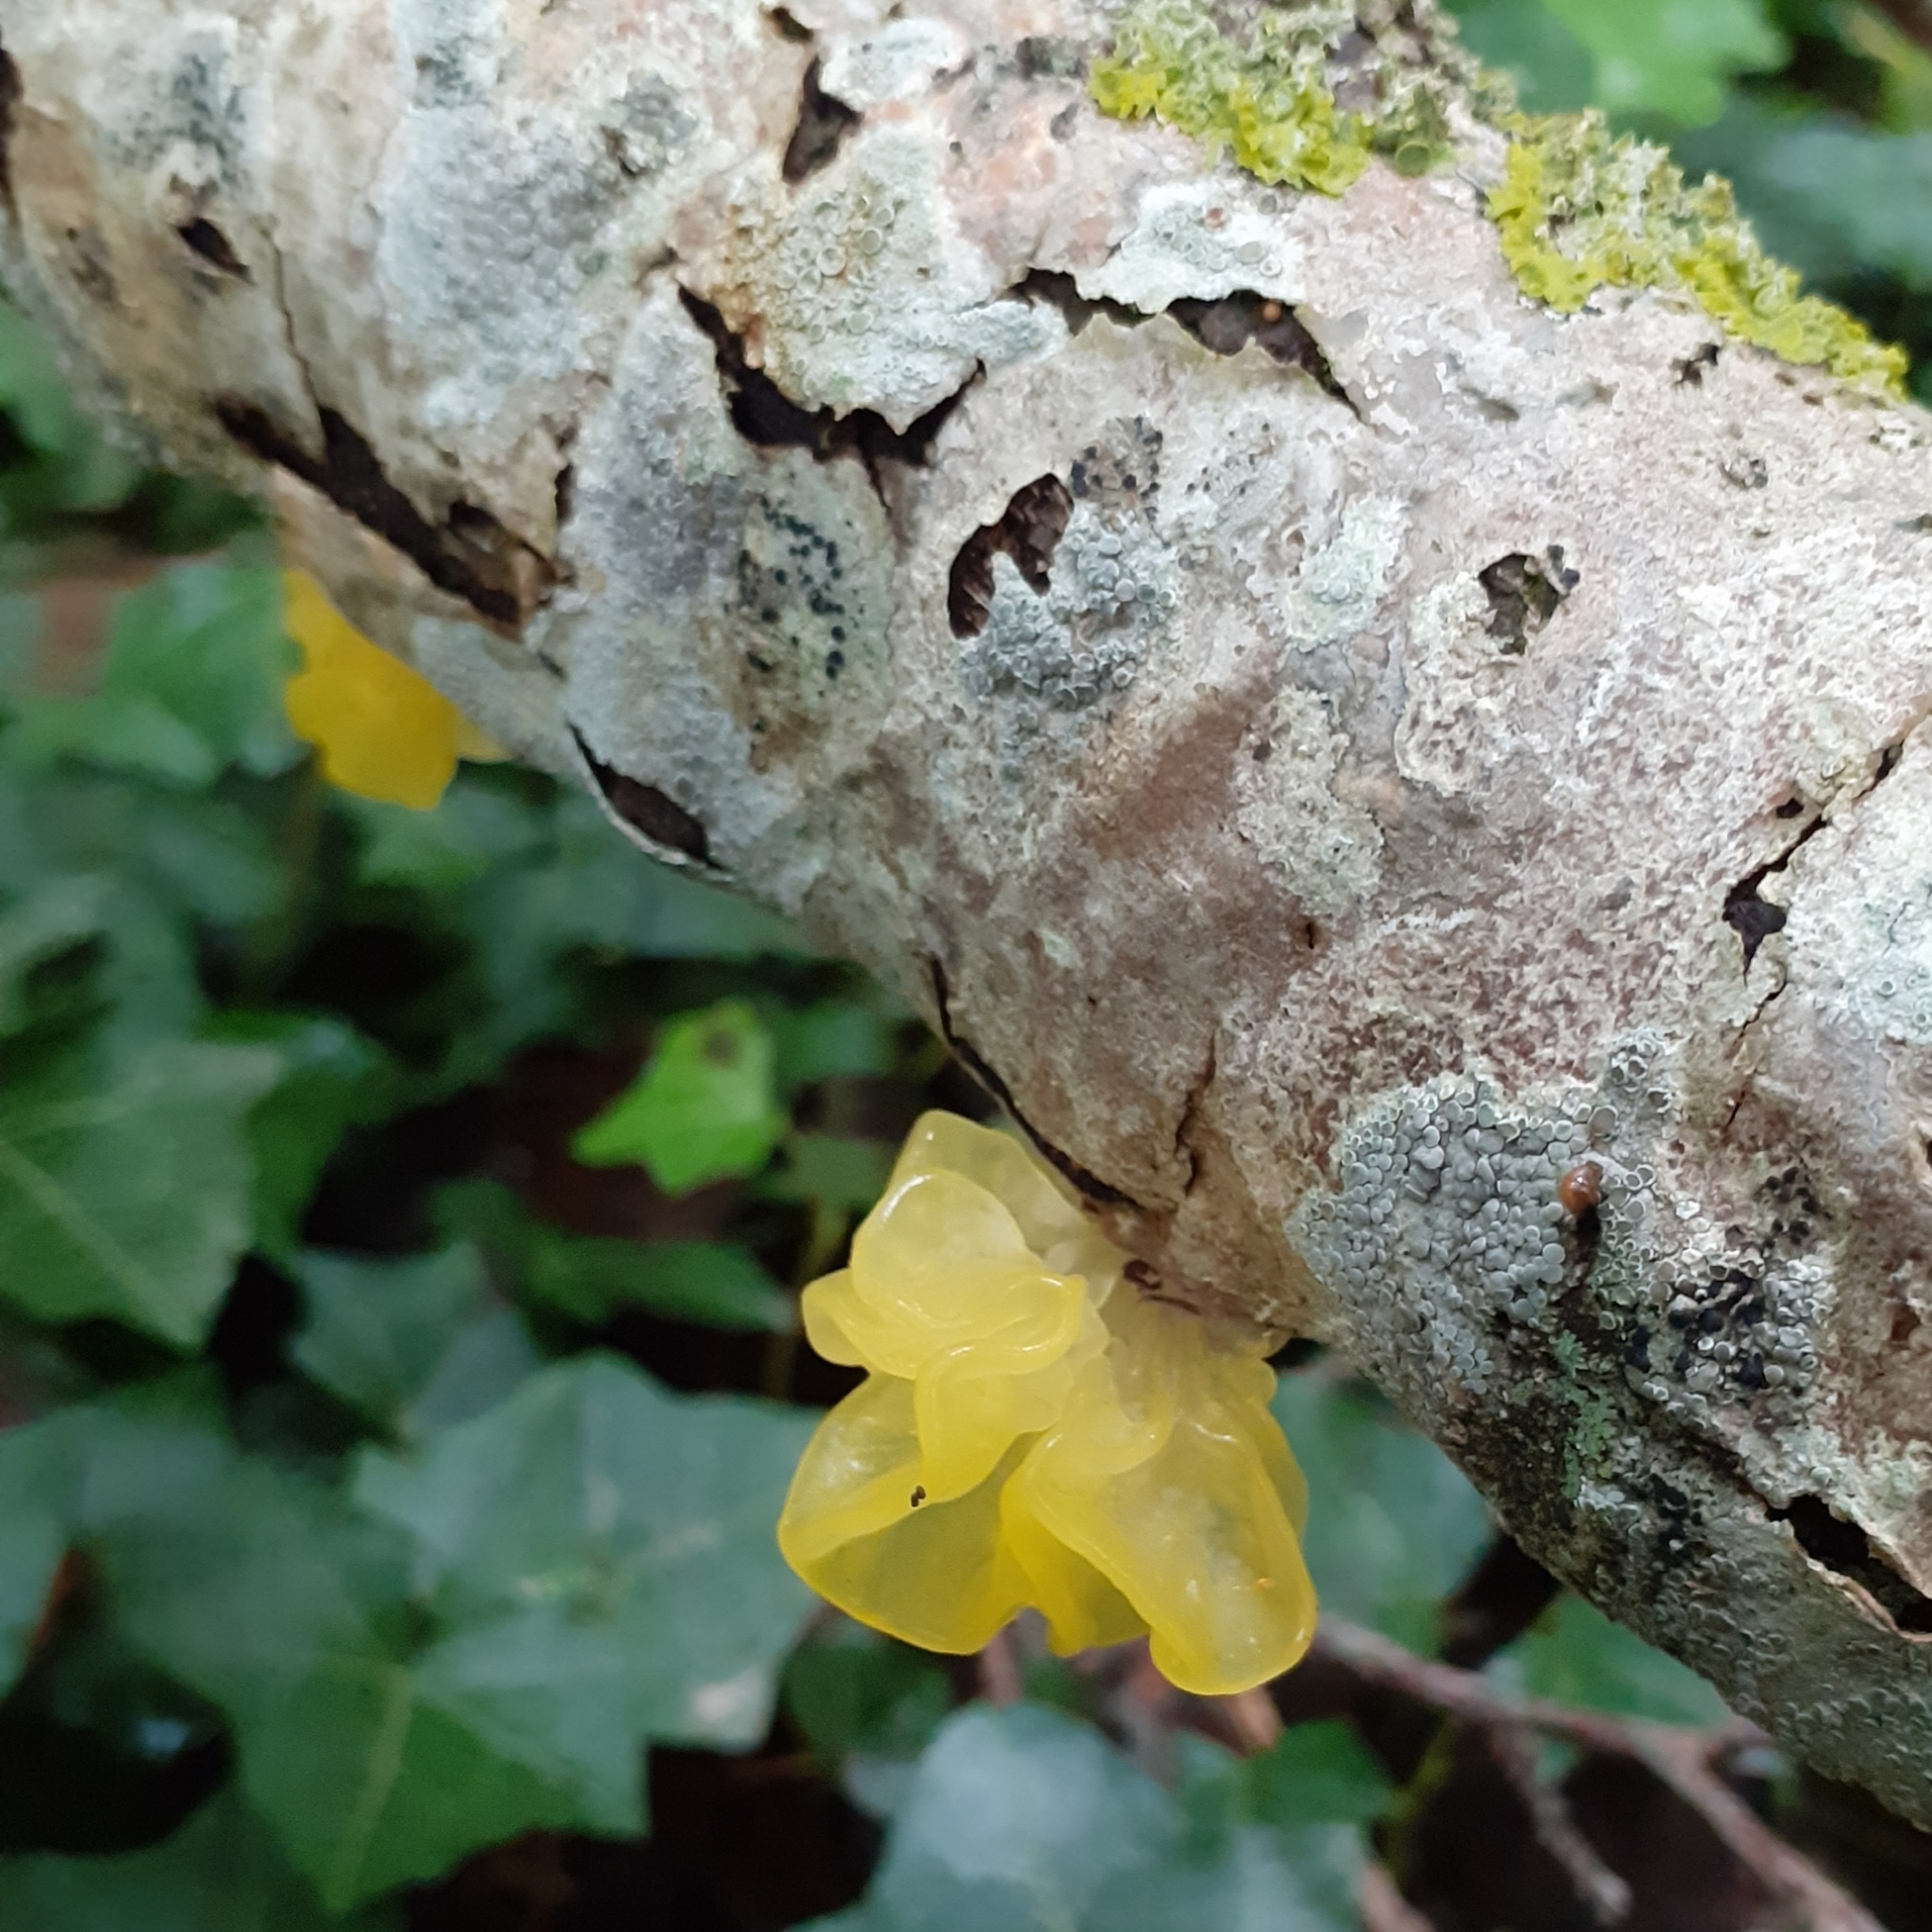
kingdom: Fungi
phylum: Basidiomycota
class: Tremellomycetes
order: Tremellales
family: Tremellaceae
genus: Tremella
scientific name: Tremella mesenterica
